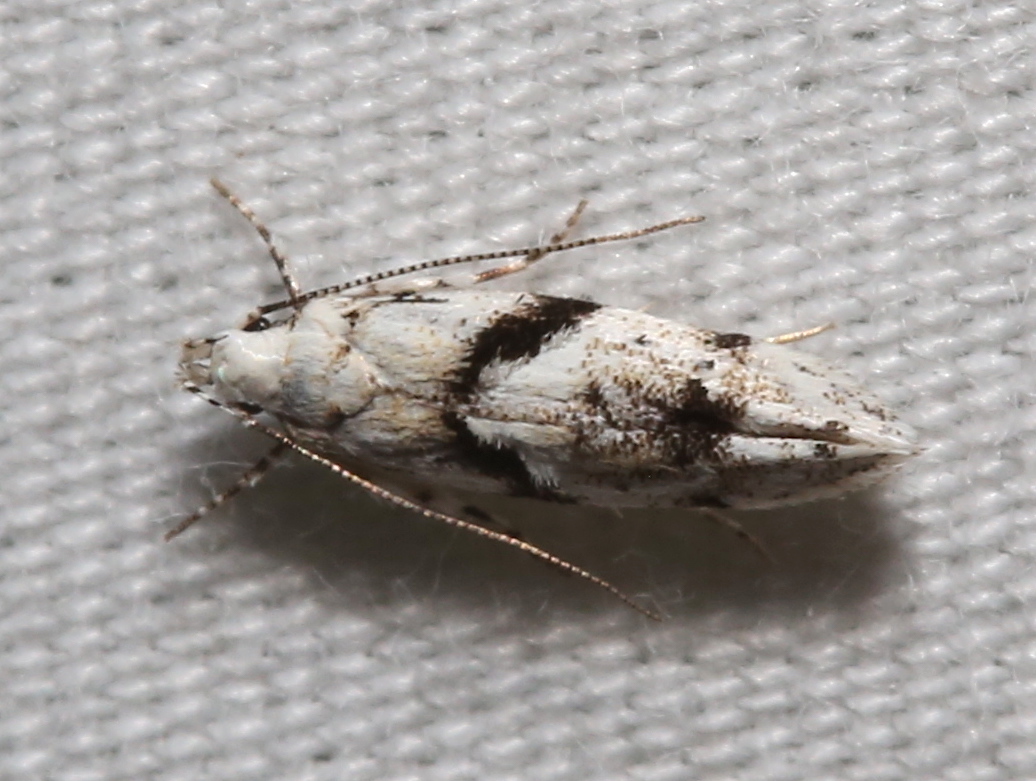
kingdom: Animalia
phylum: Arthropoda
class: Insecta
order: Lepidoptera
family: Gelechiidae
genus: Arogalea
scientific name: Arogalea cristifasciella
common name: White stripe-backed moth
